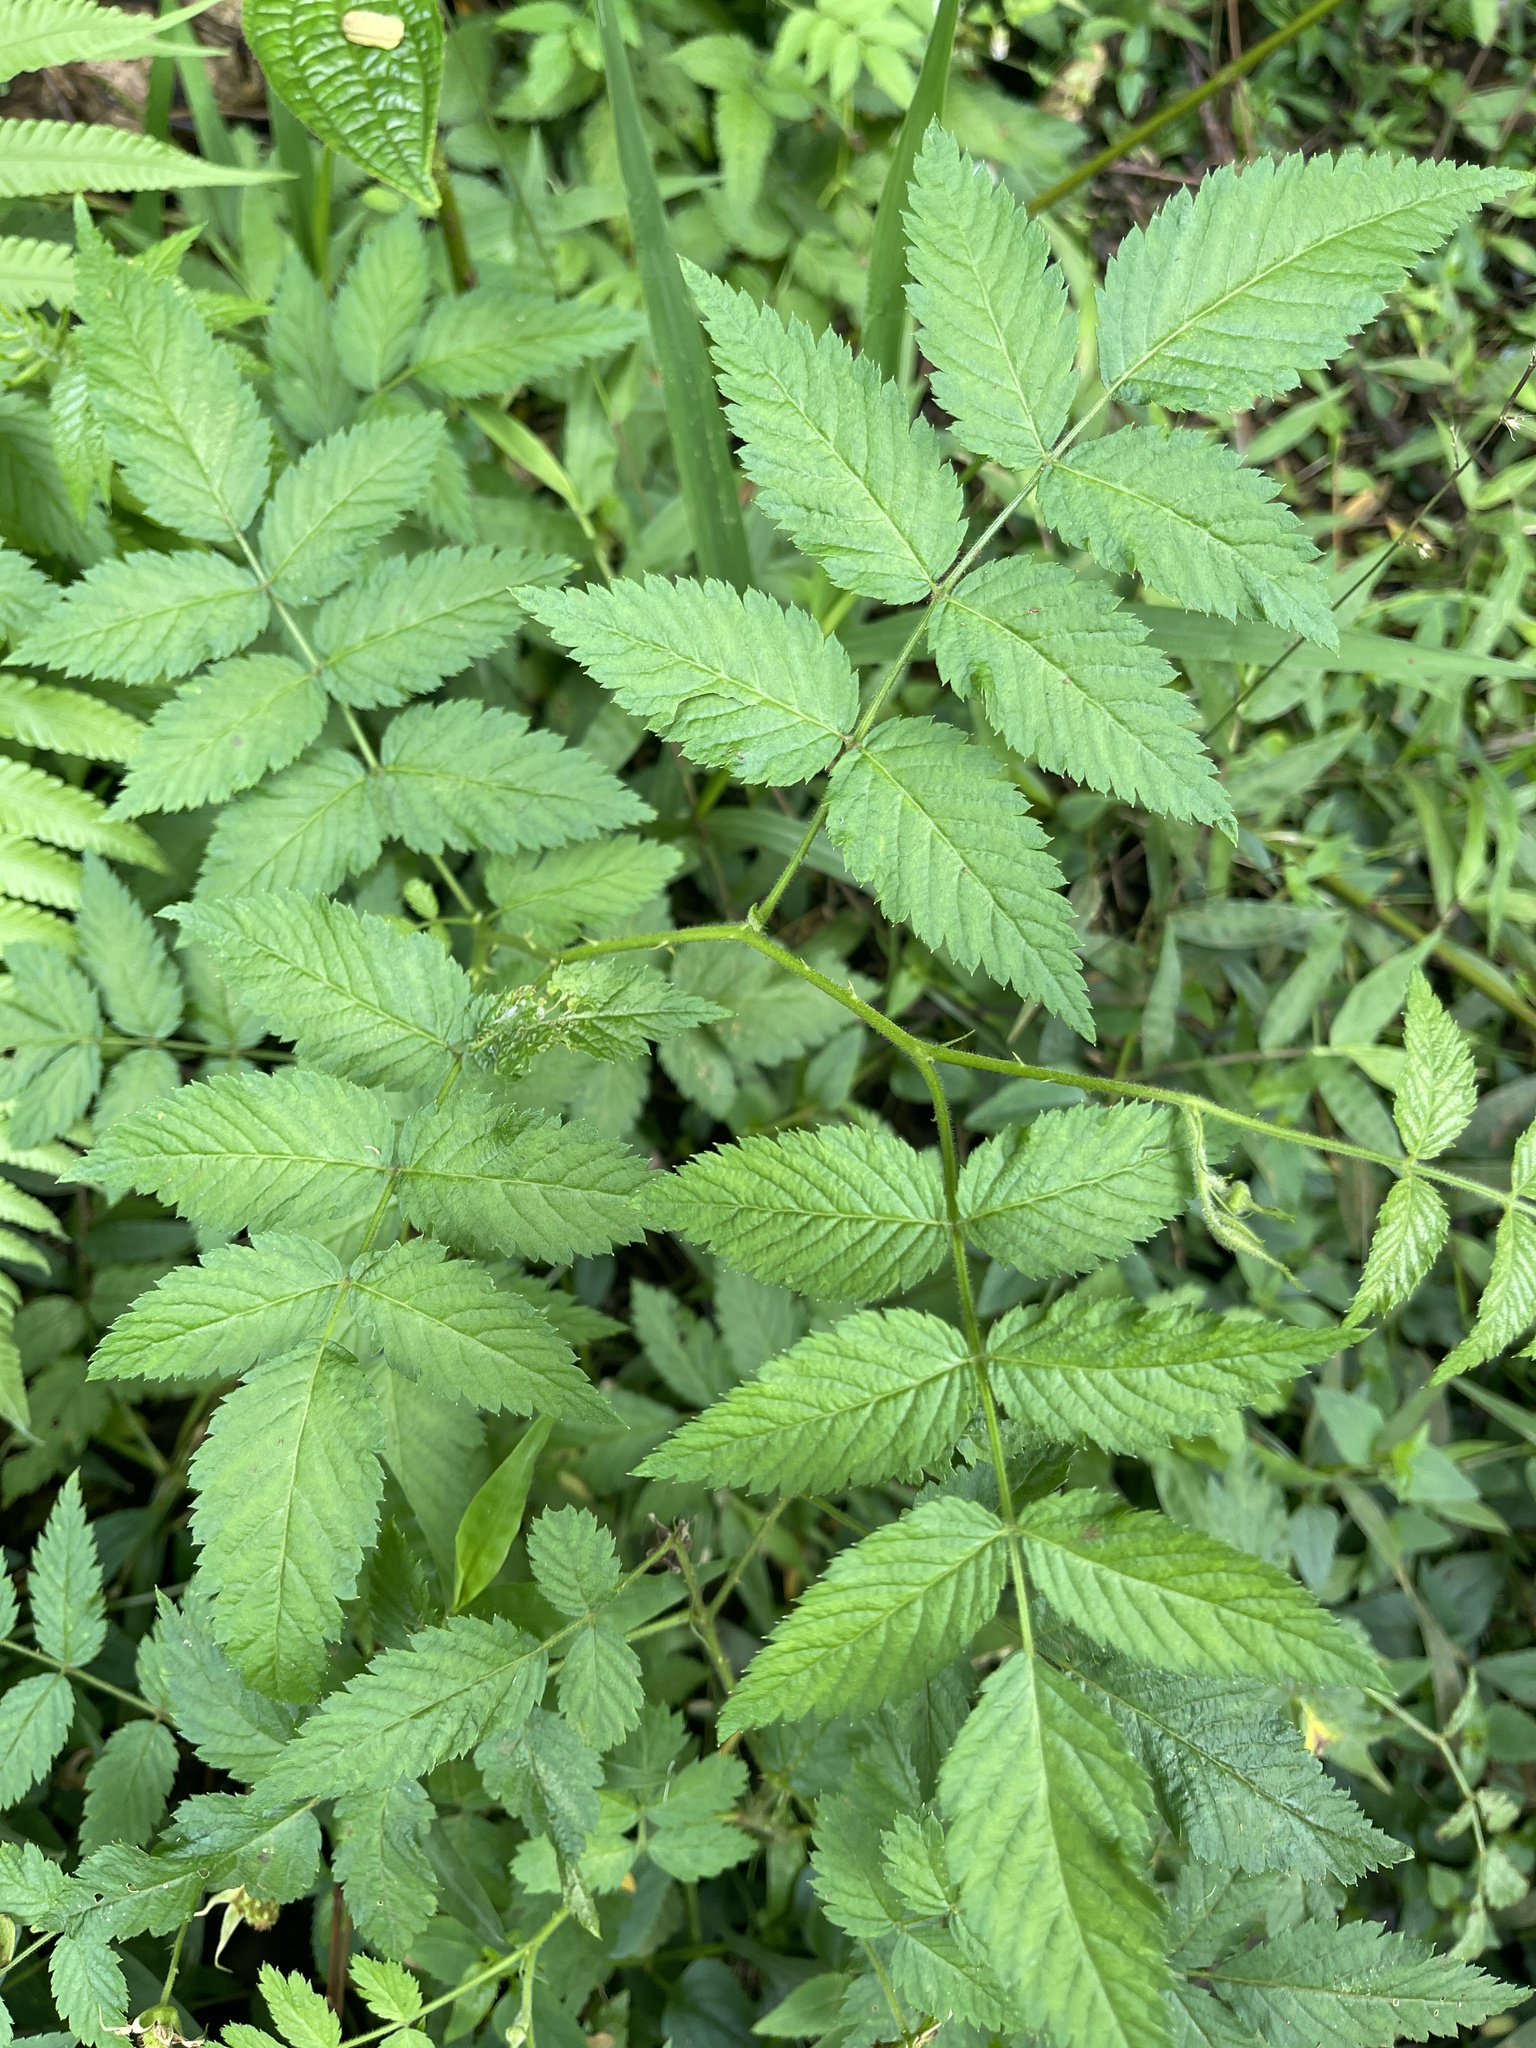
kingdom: Plantae
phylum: Tracheophyta
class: Magnoliopsida
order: Rosales
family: Rosaceae
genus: Rubus
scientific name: Rubus rosifolius
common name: Roseleaf raspberry
